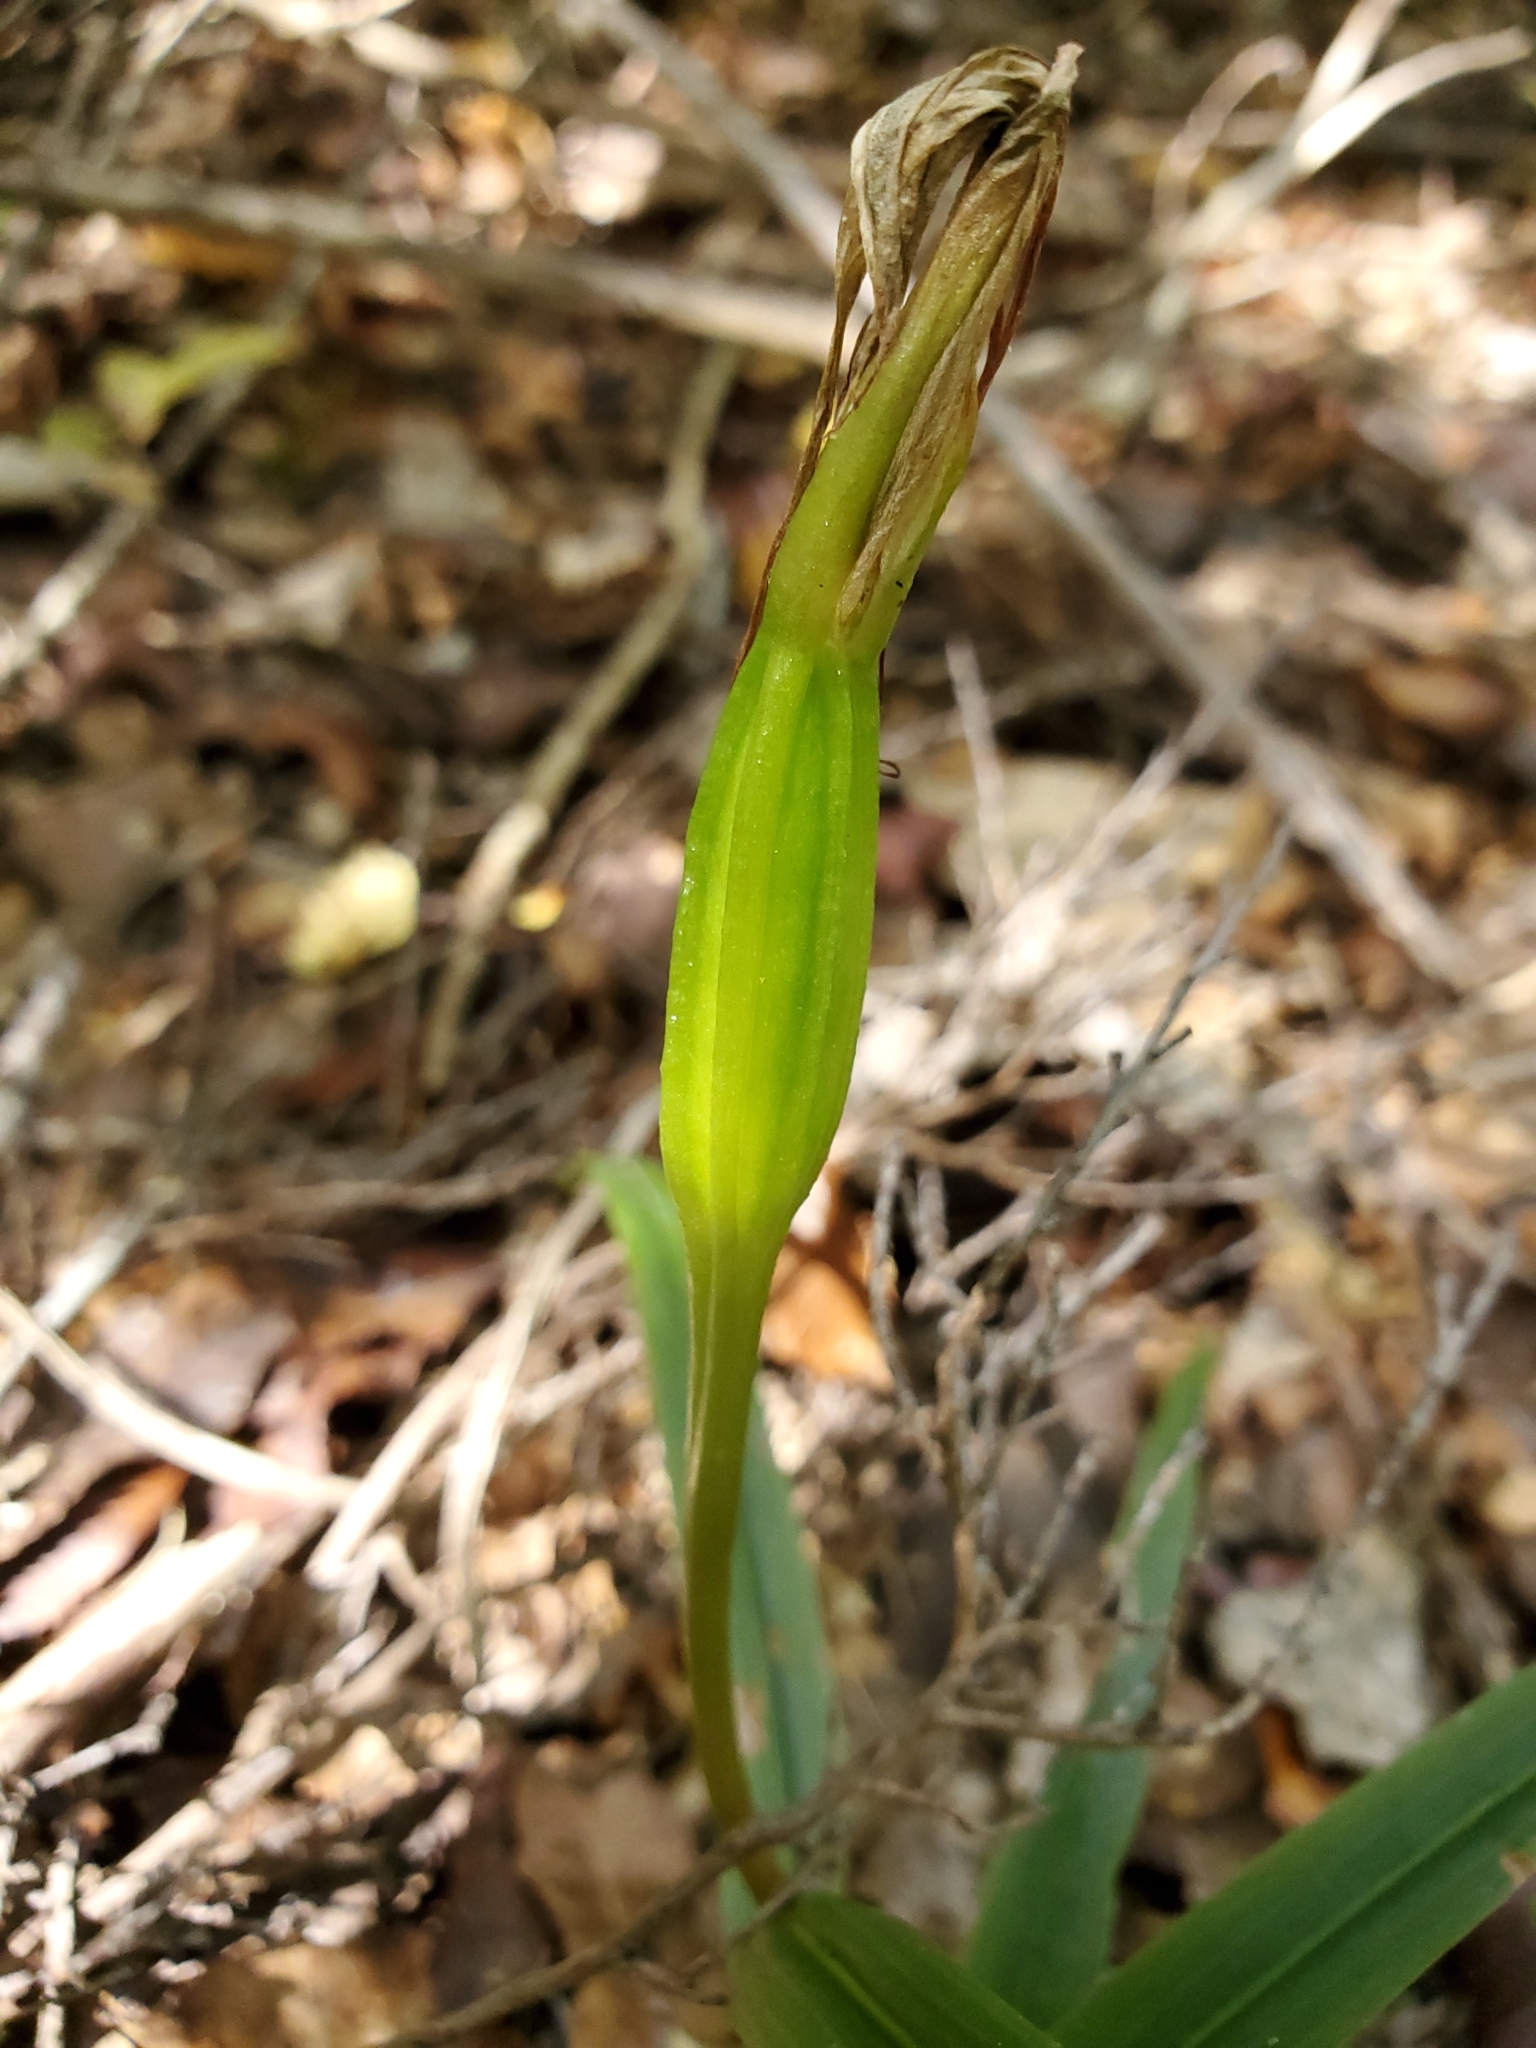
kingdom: Plantae
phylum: Tracheophyta
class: Liliopsida
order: Asparagales
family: Orchidaceae
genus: Pterostylis
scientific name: Pterostylis banksii
